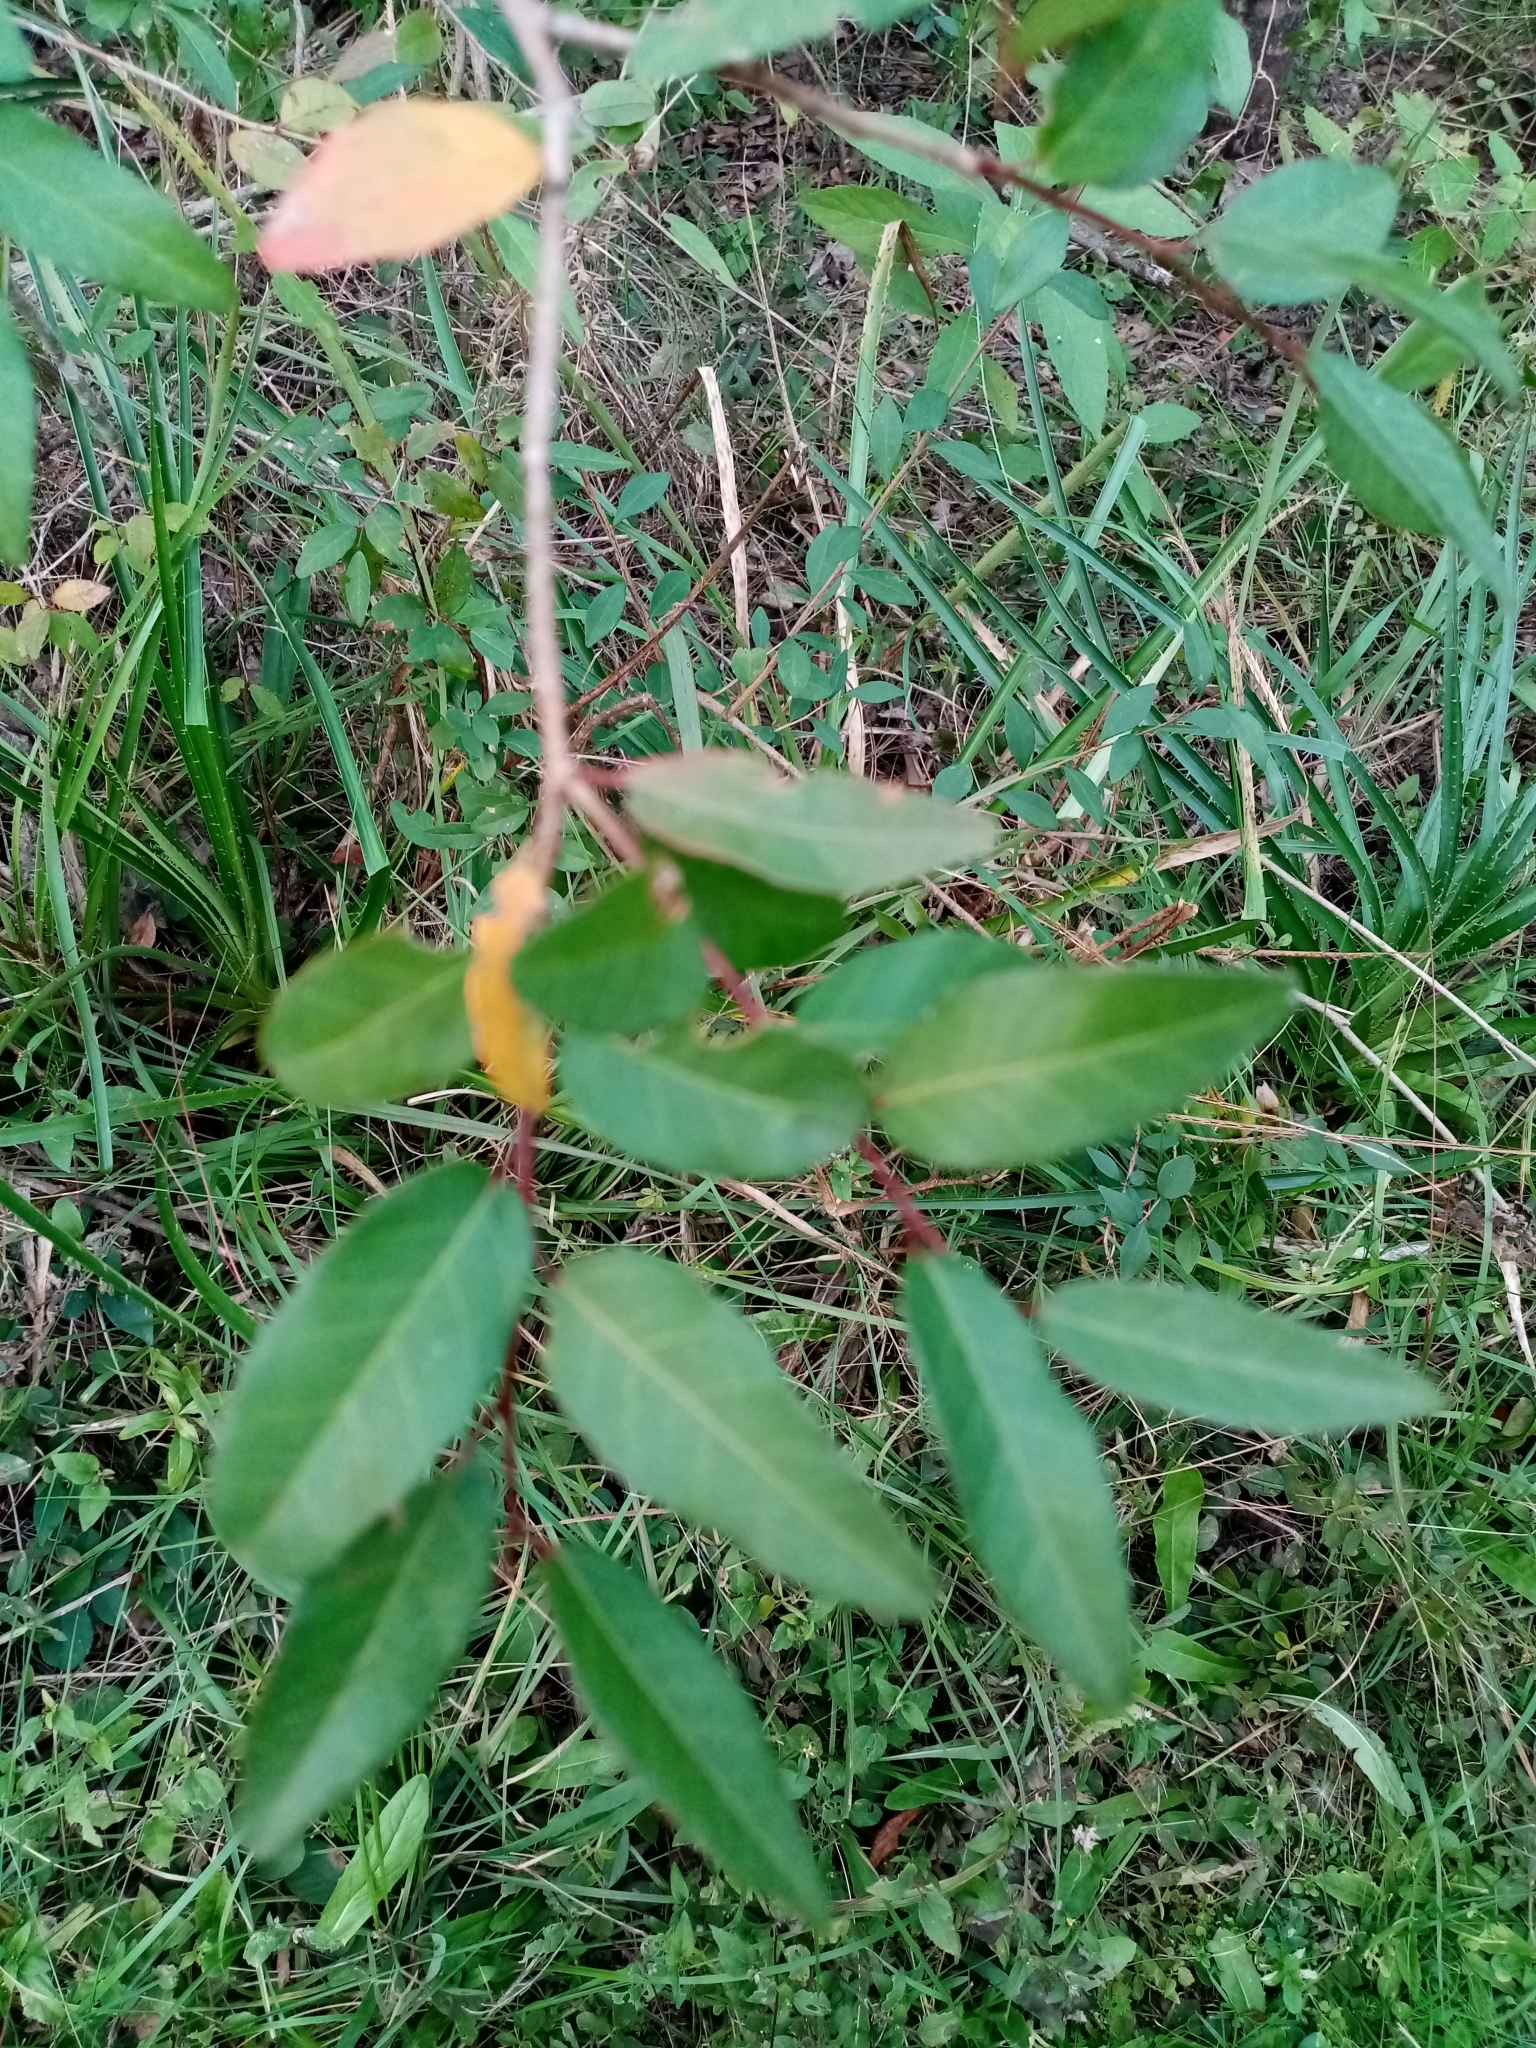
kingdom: Plantae
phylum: Tracheophyta
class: Magnoliopsida
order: Malpighiales
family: Euphorbiaceae
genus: Sebastiania
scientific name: Sebastiania klotzschiana
